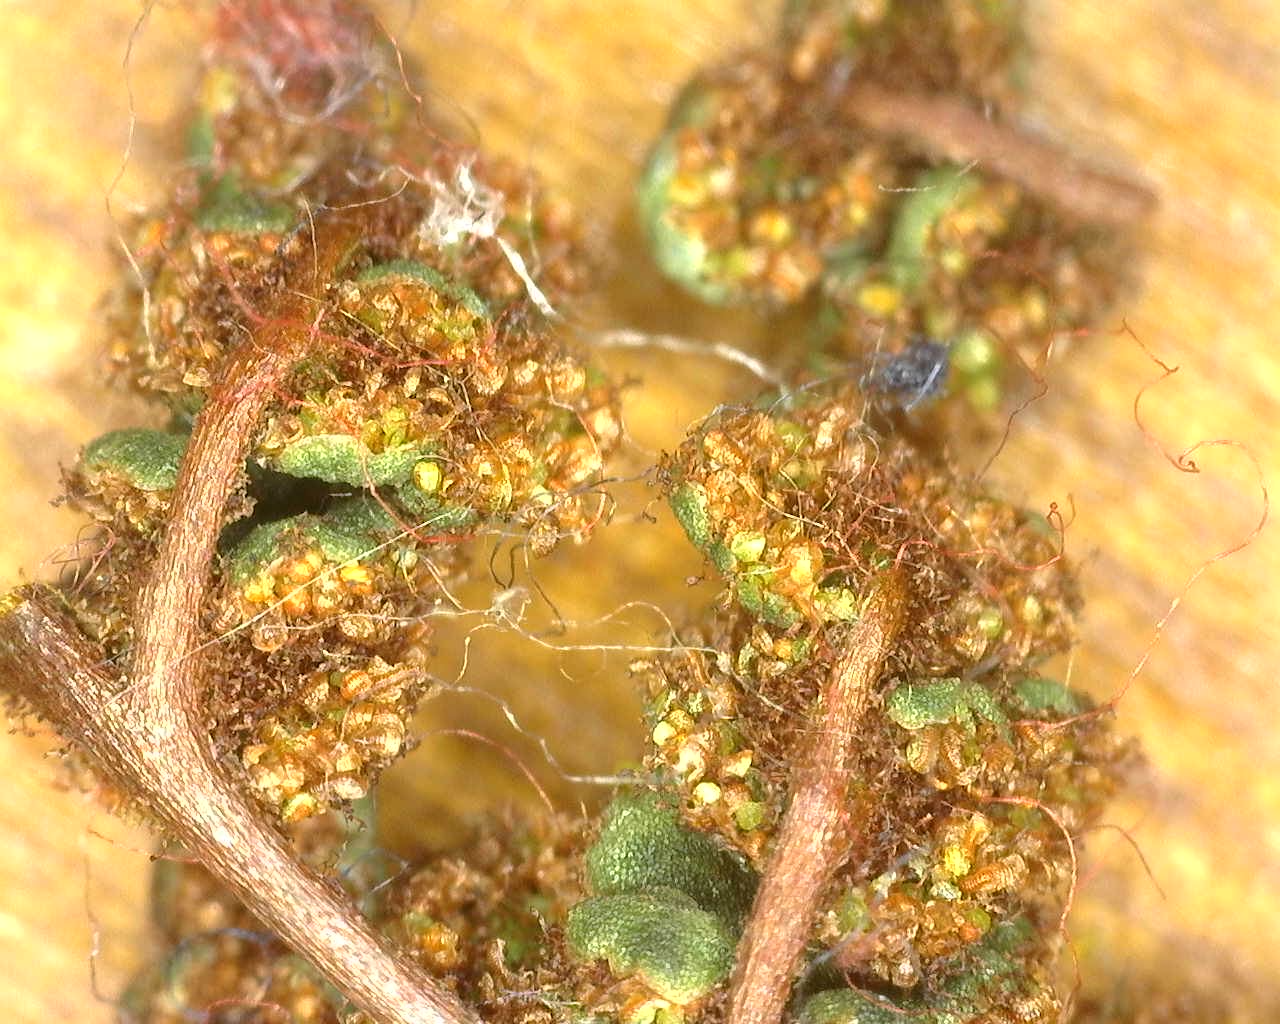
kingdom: Plantae
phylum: Tracheophyta
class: Polypodiopsida
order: Polypodiales
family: Pteridaceae
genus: Oeosporangium
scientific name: Oeosporangium hispanicum
